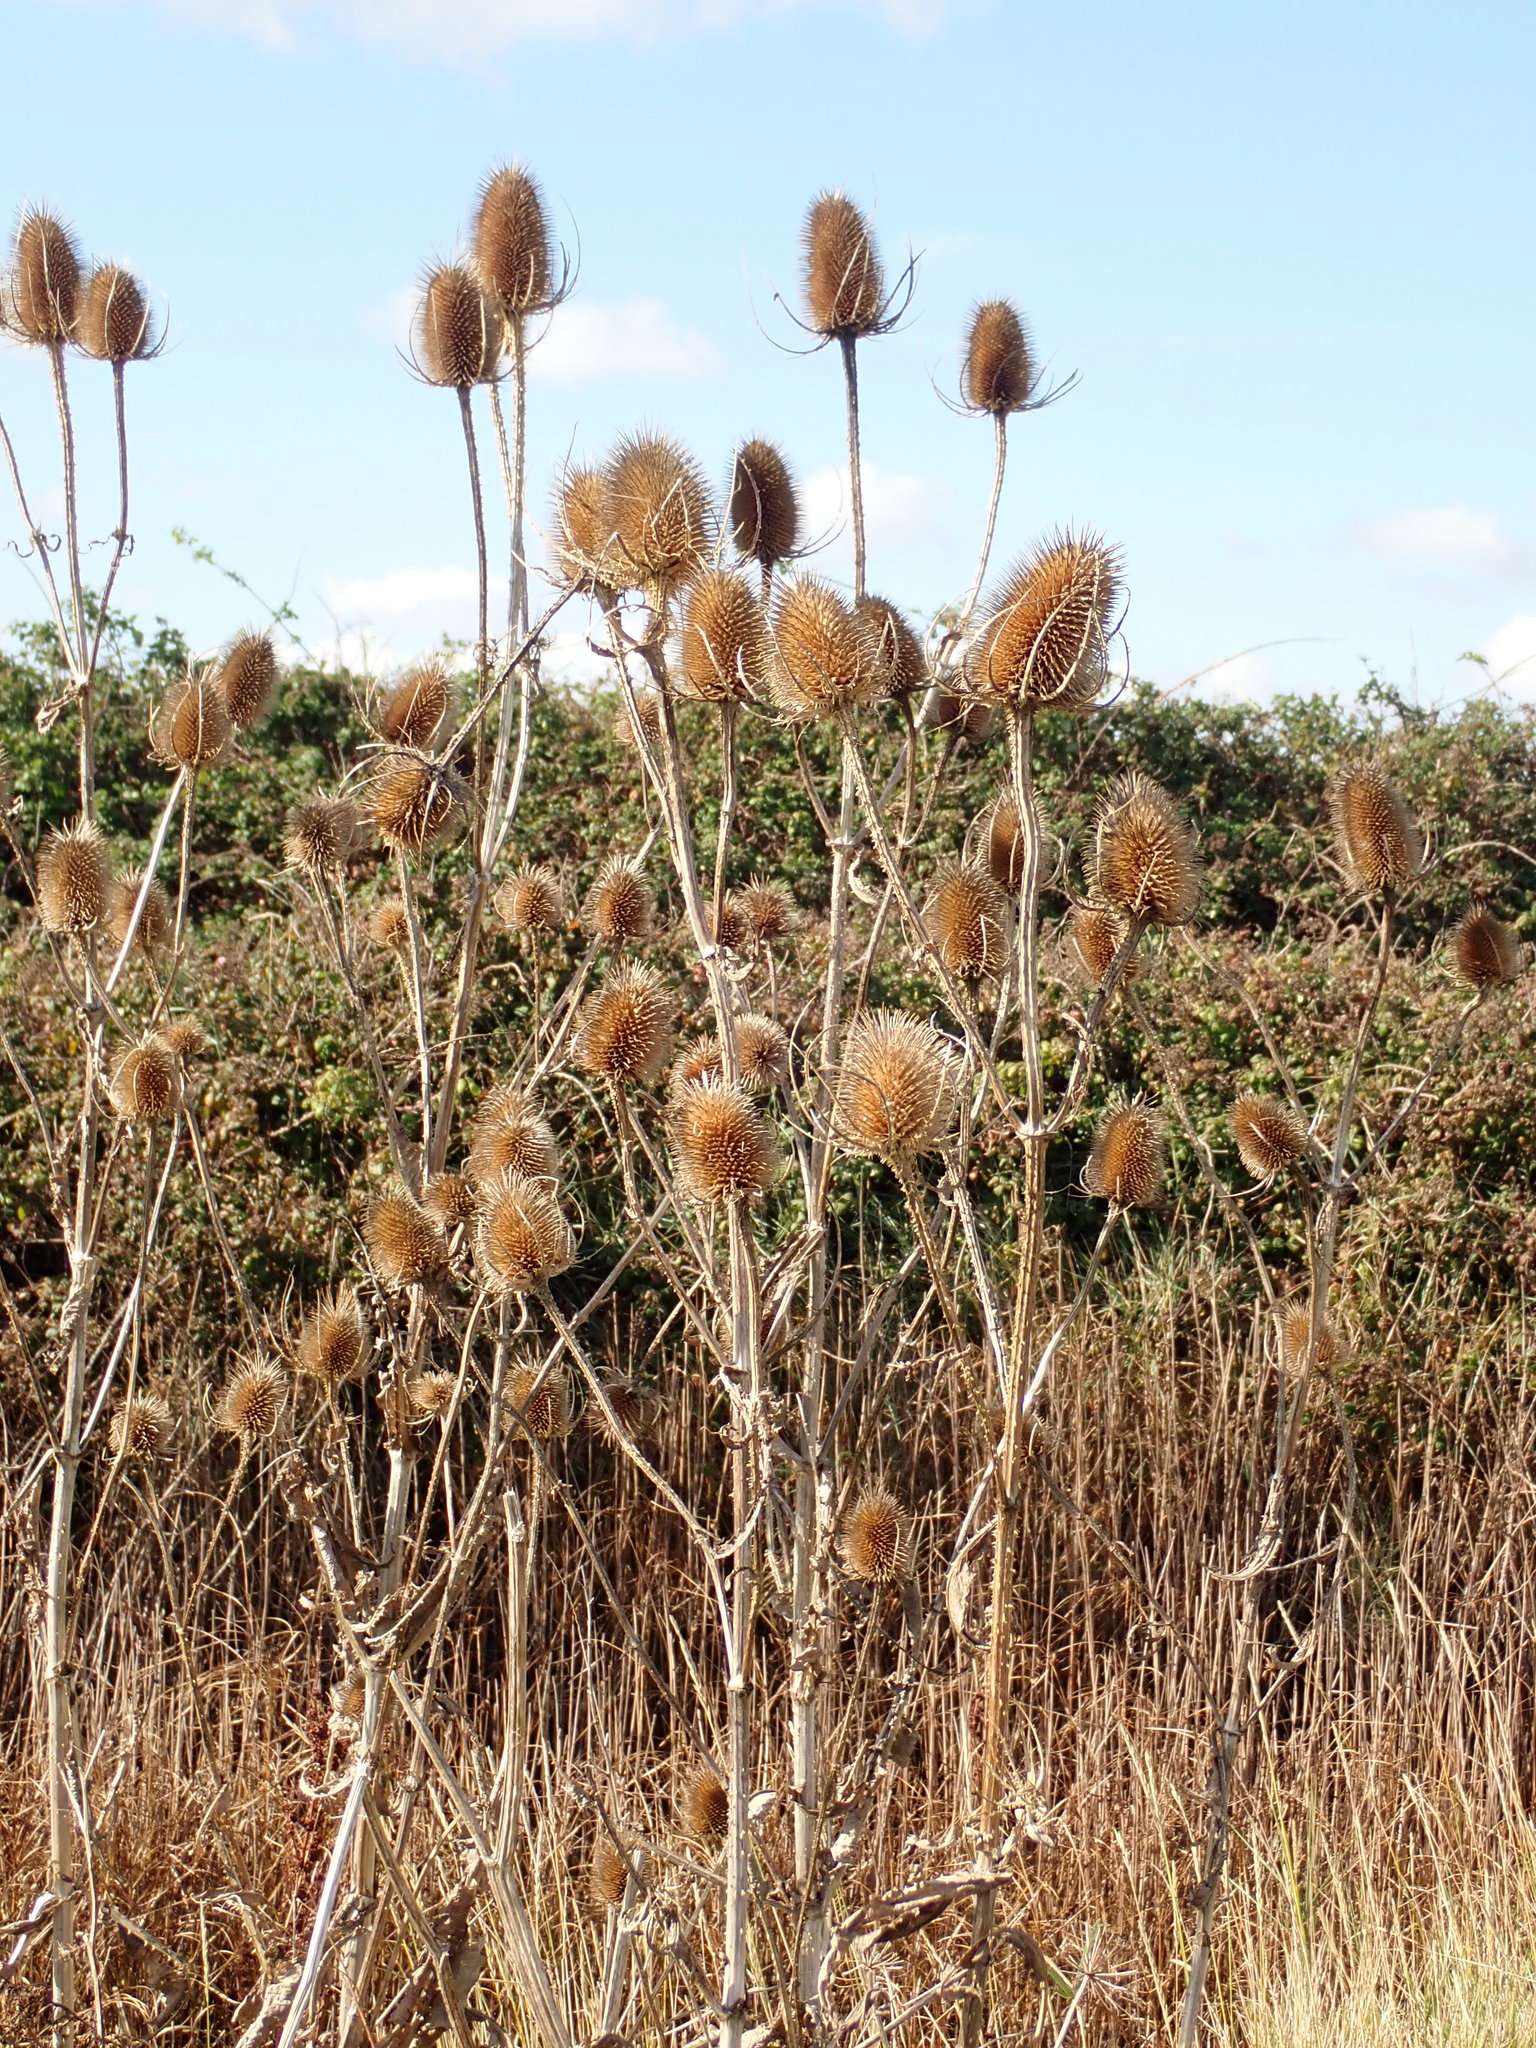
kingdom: Plantae
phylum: Tracheophyta
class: Magnoliopsida
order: Dipsacales
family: Caprifoliaceae
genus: Dipsacus
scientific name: Dipsacus fullonum
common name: Teasel
